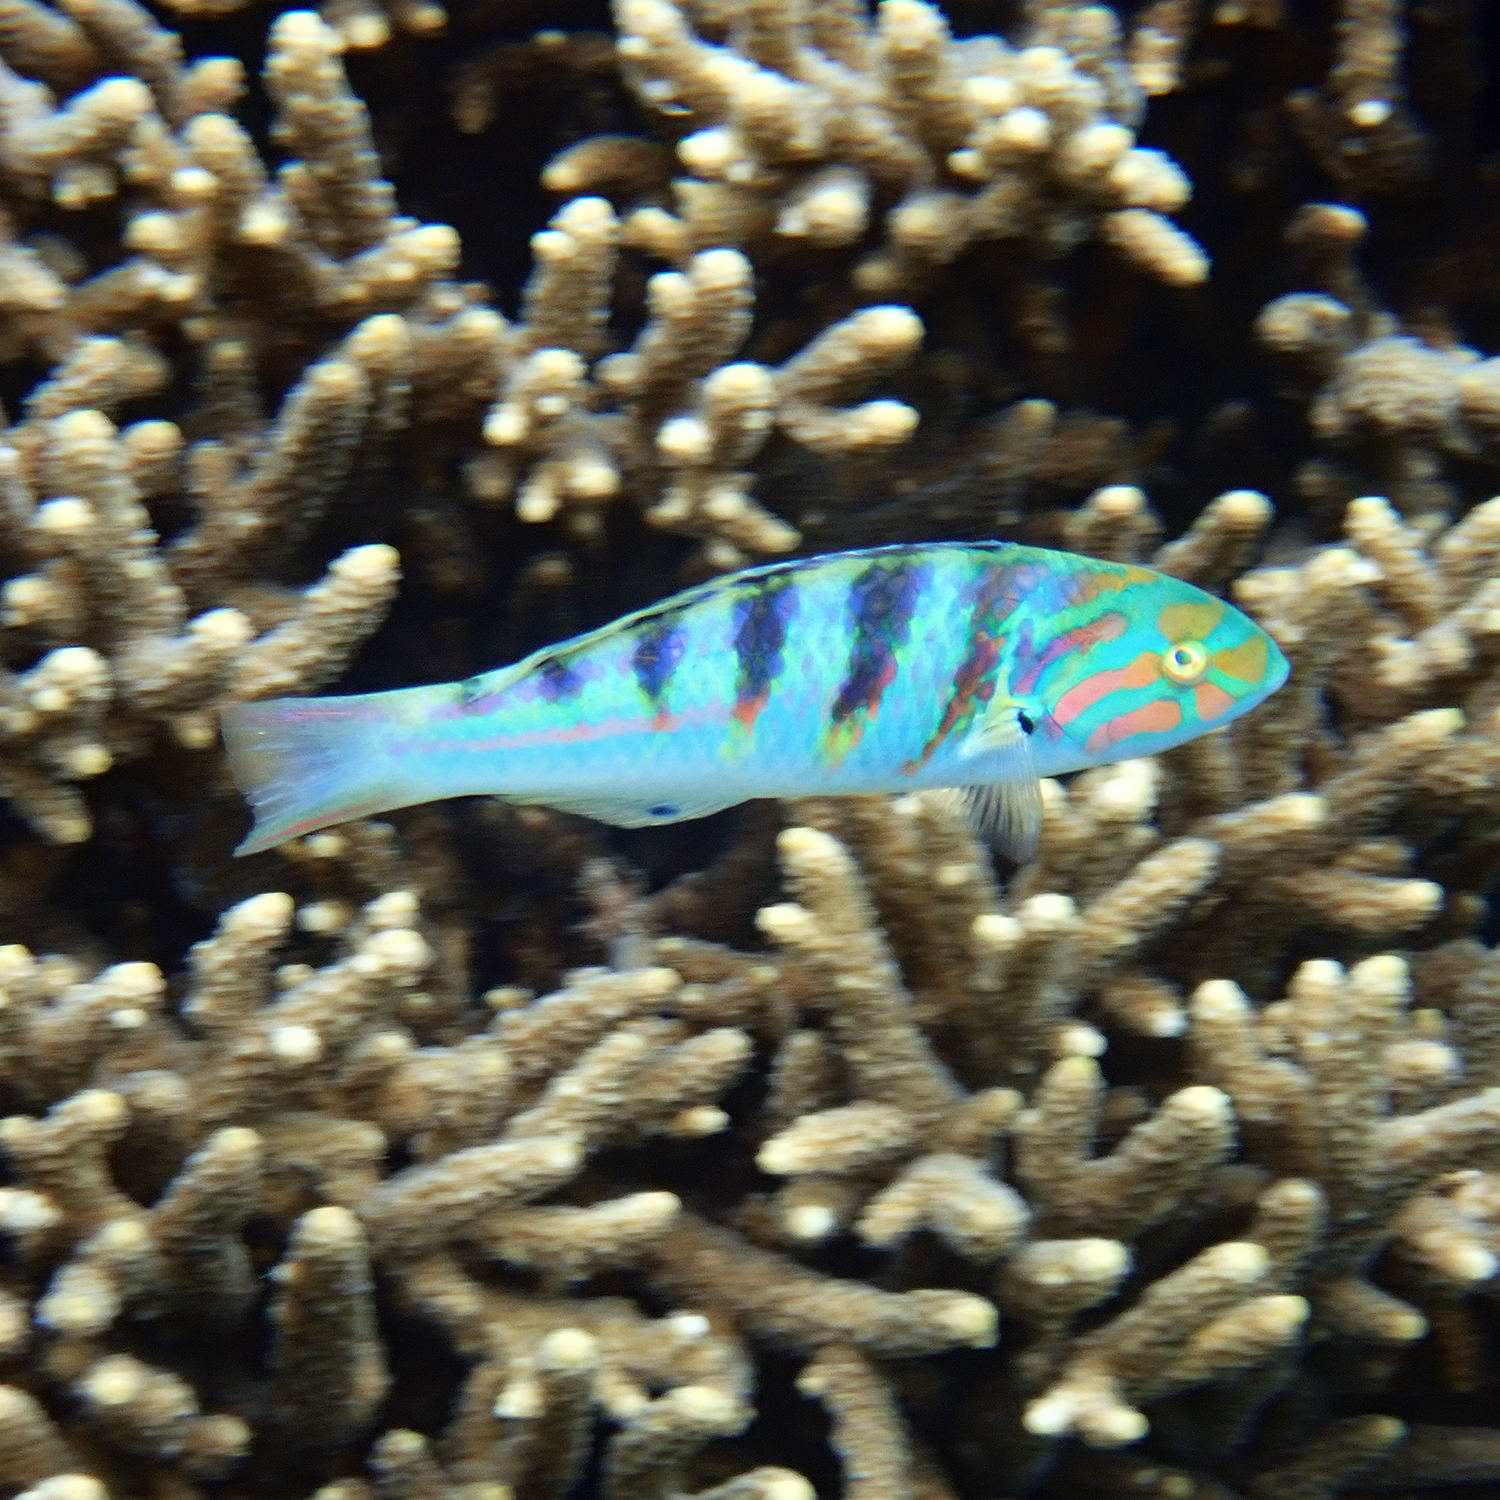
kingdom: Animalia
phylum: Chordata
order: Perciformes
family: Labridae
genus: Thalassoma
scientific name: Thalassoma hardwicke
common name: Sixbar wrasse
